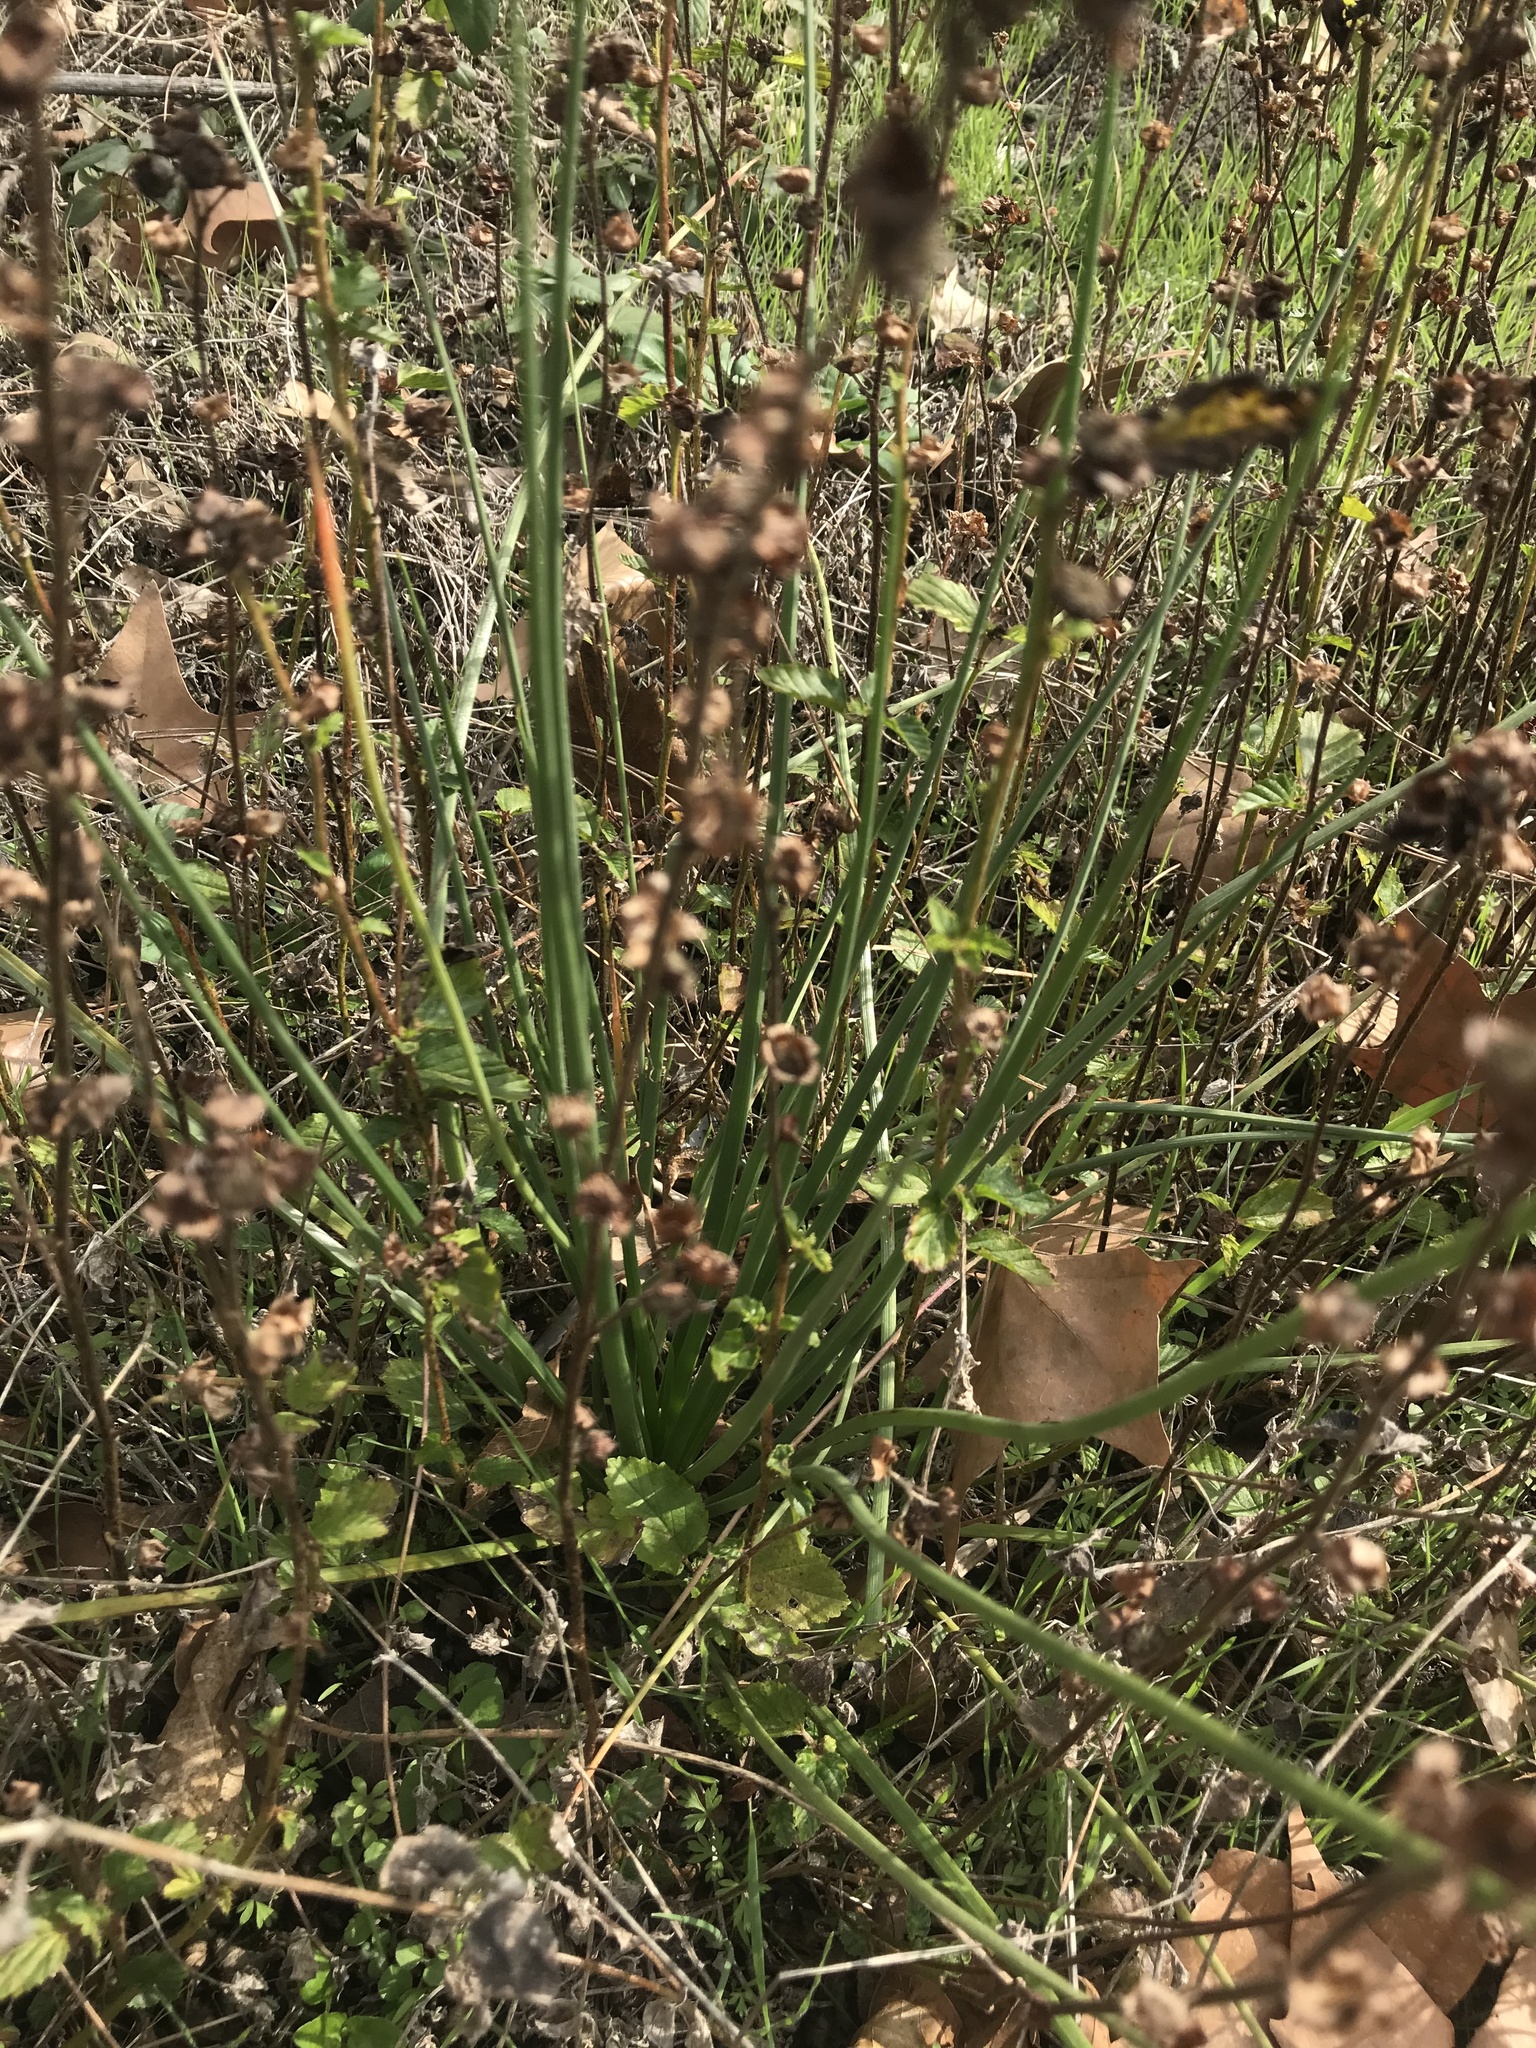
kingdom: Plantae
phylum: Tracheophyta
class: Magnoliopsida
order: Malvales
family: Malvaceae
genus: Malvastrum
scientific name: Malvastrum coromandelianum
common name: Threelobe false mallow
